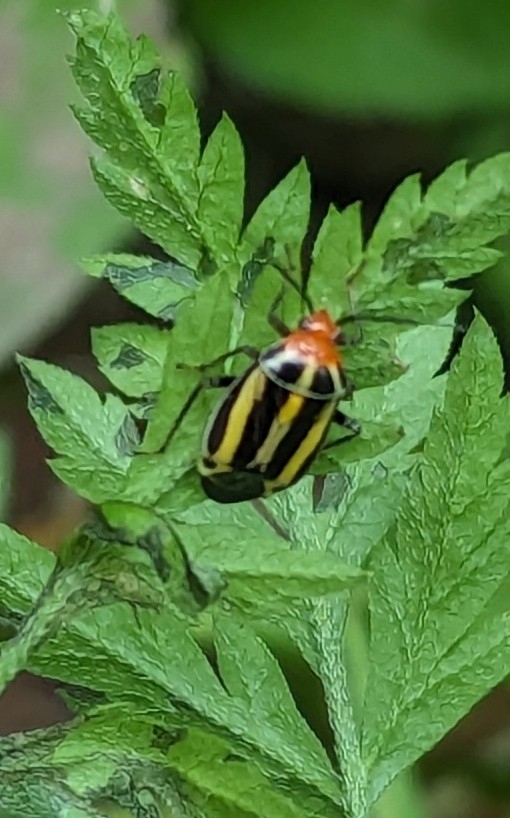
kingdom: Animalia
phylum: Arthropoda
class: Insecta
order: Hemiptera
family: Miridae
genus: Poecilocapsus
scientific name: Poecilocapsus lineatus
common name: Four-lined plant bug
